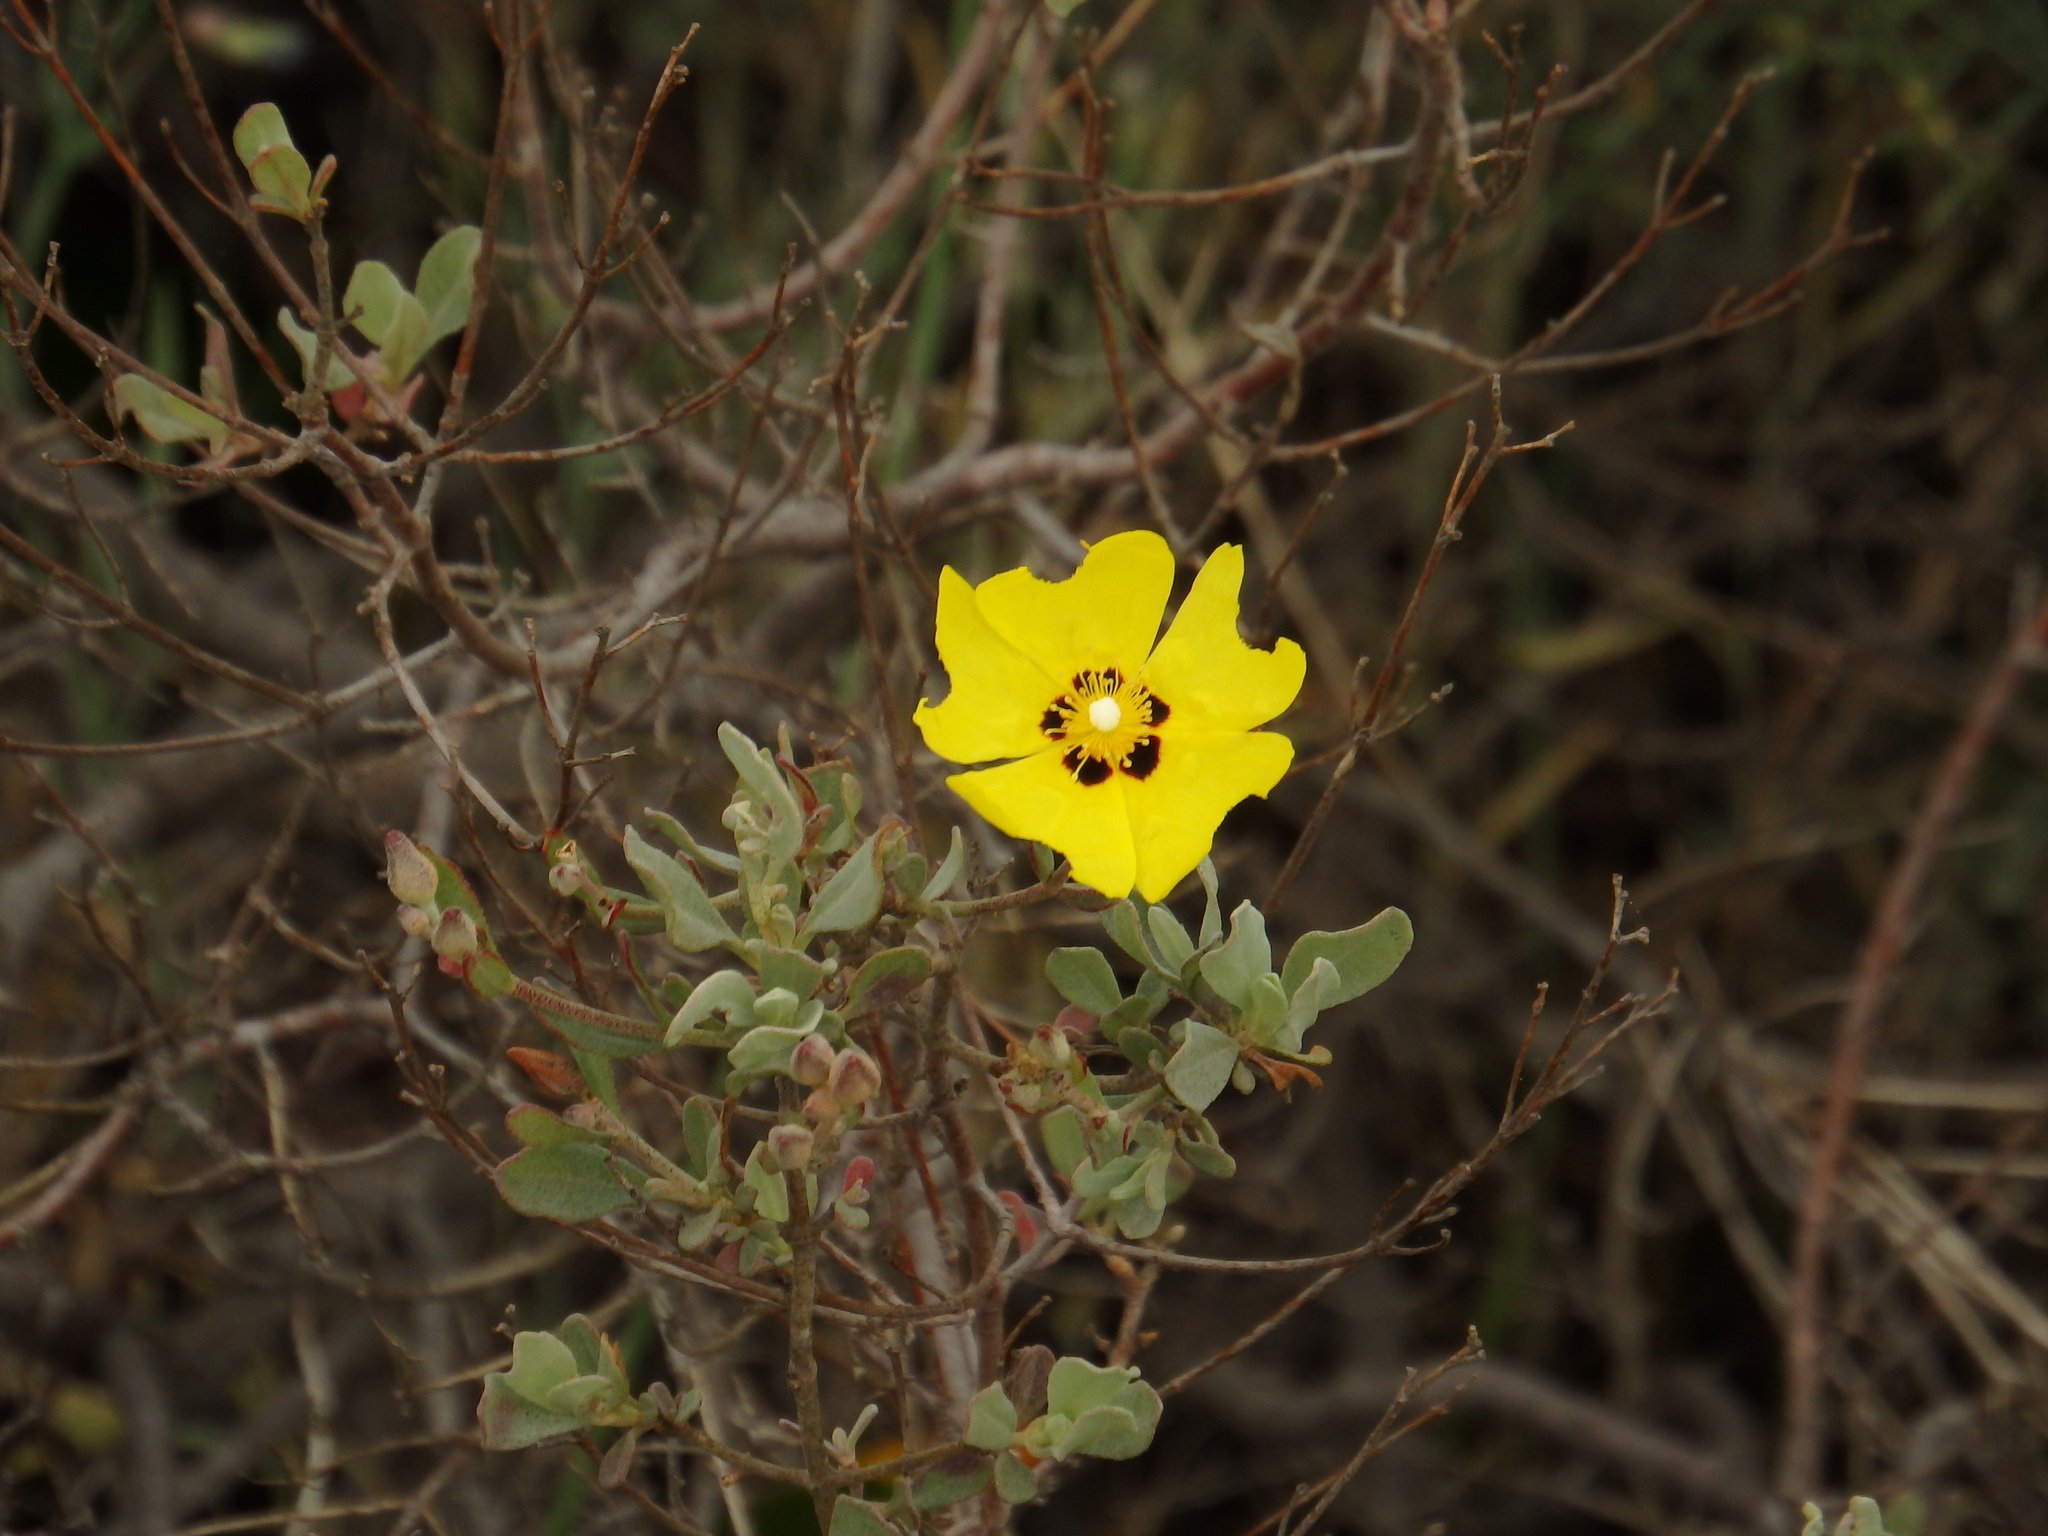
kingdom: Plantae
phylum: Tracheophyta
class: Magnoliopsida
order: Malvales
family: Cistaceae
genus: Halimium
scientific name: Halimium halimifolium
